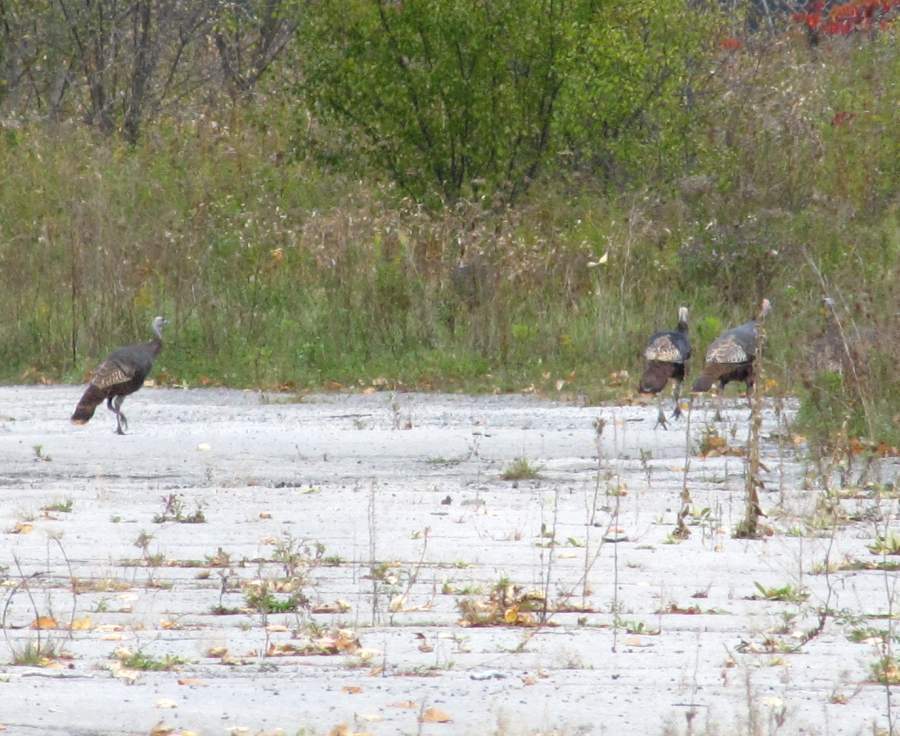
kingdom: Animalia
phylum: Chordata
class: Aves
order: Galliformes
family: Phasianidae
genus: Meleagris
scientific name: Meleagris gallopavo
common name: Wild turkey
